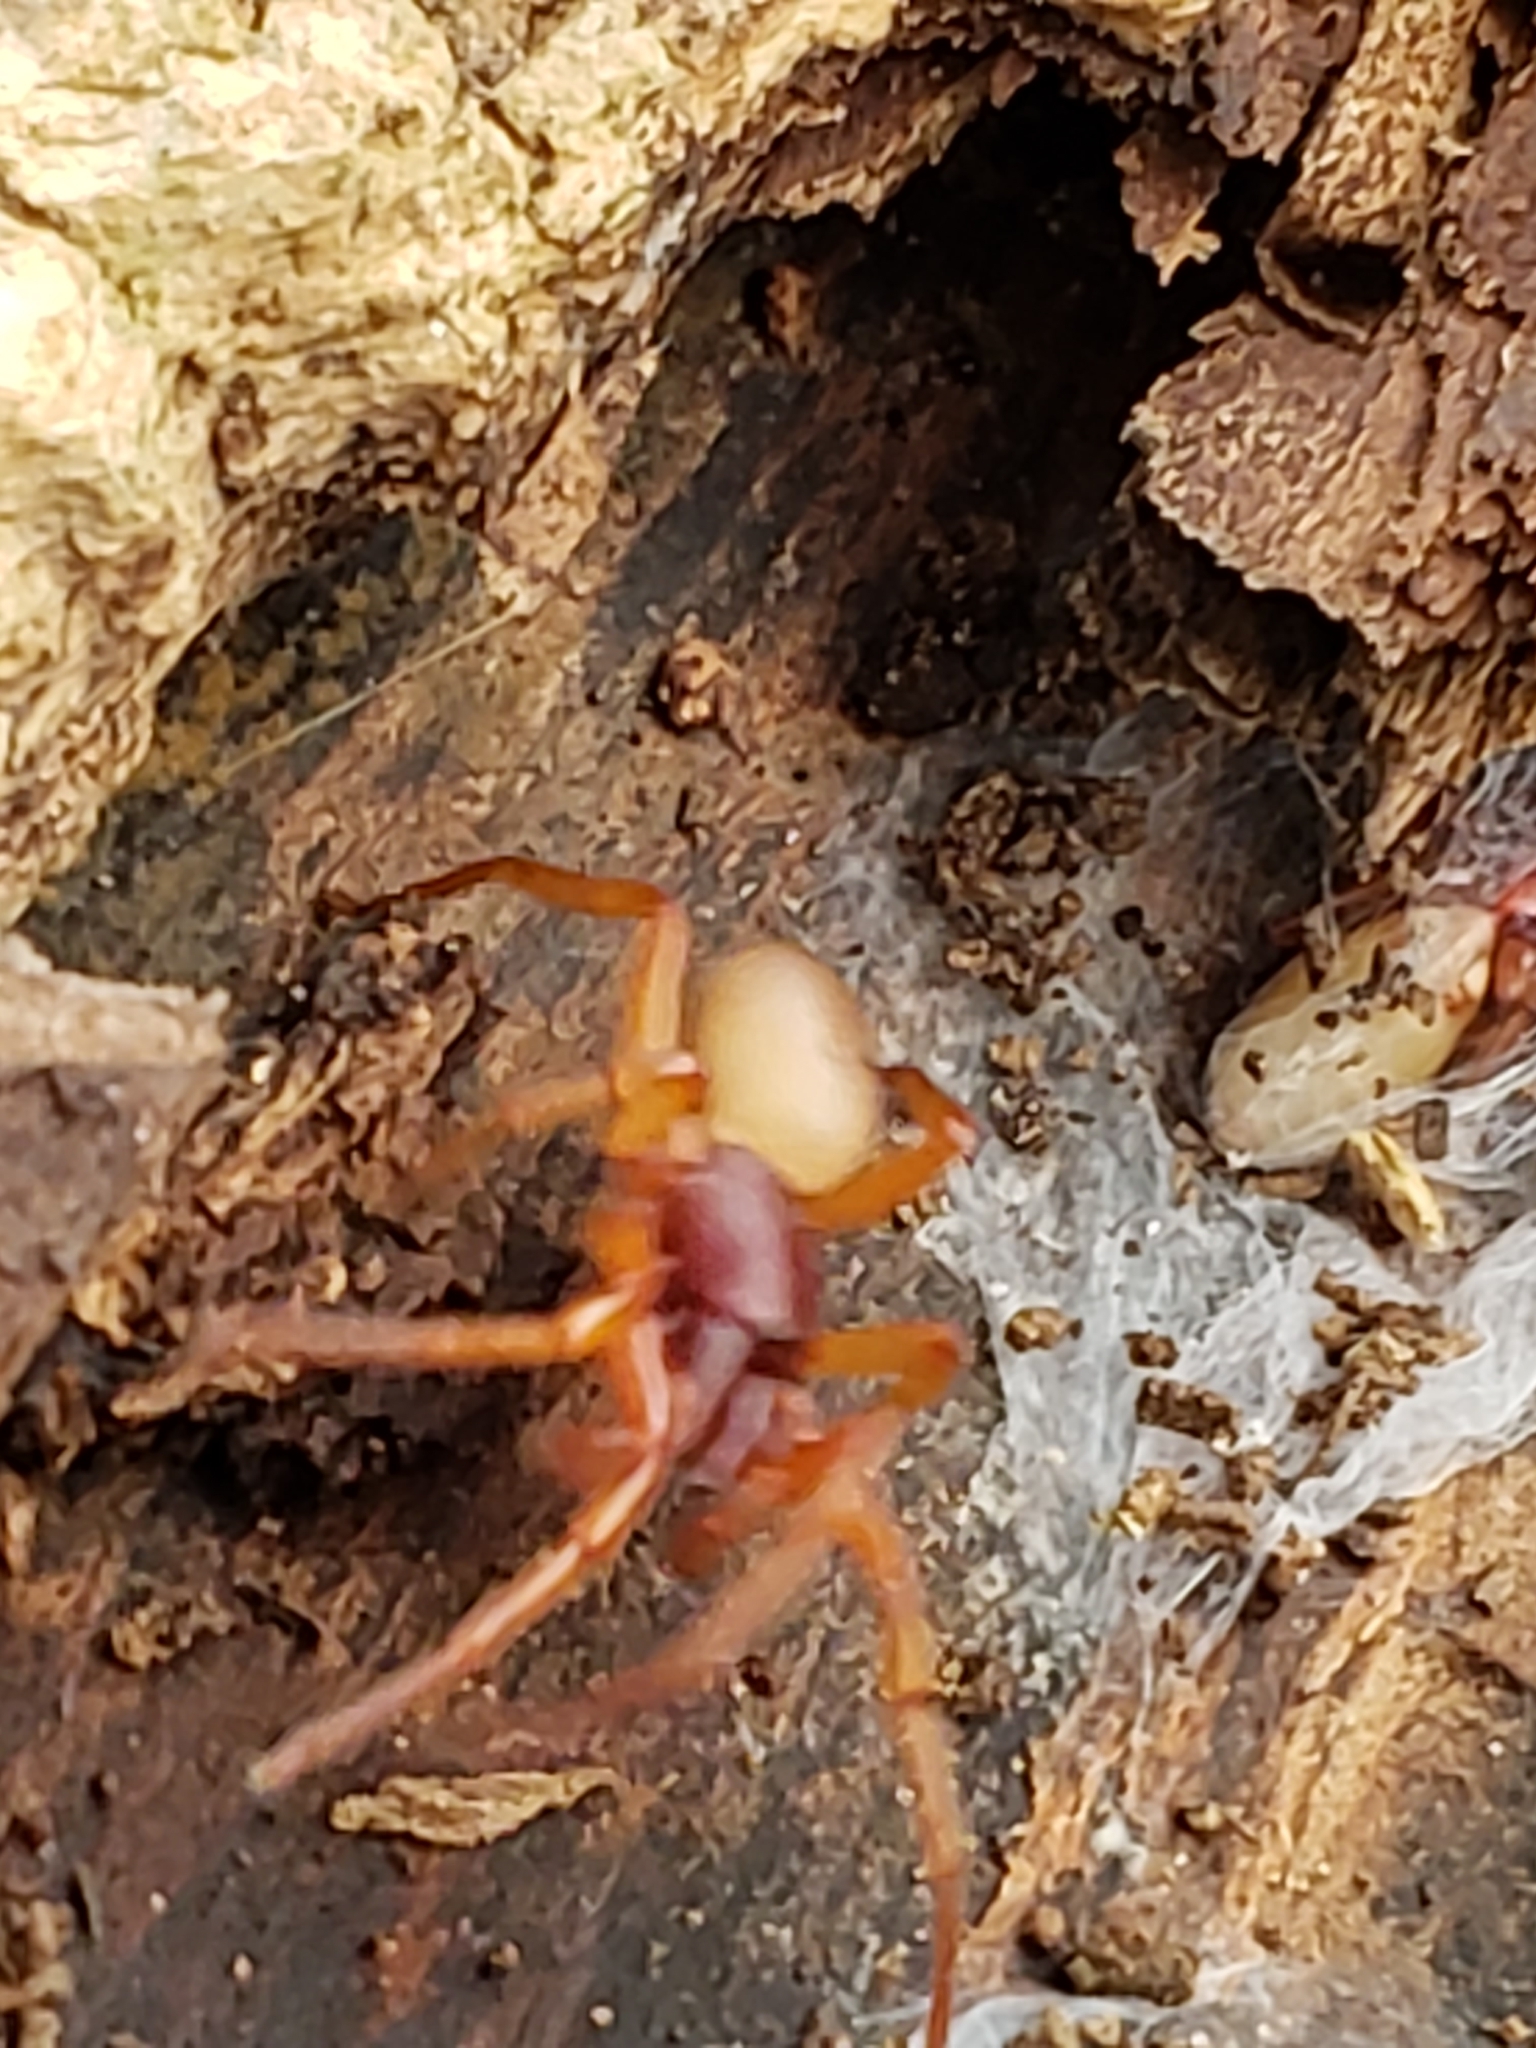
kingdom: Animalia
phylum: Arthropoda
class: Arachnida
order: Araneae
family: Dysderidae
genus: Dysdera
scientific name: Dysdera crocata
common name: Woodlouse spider
